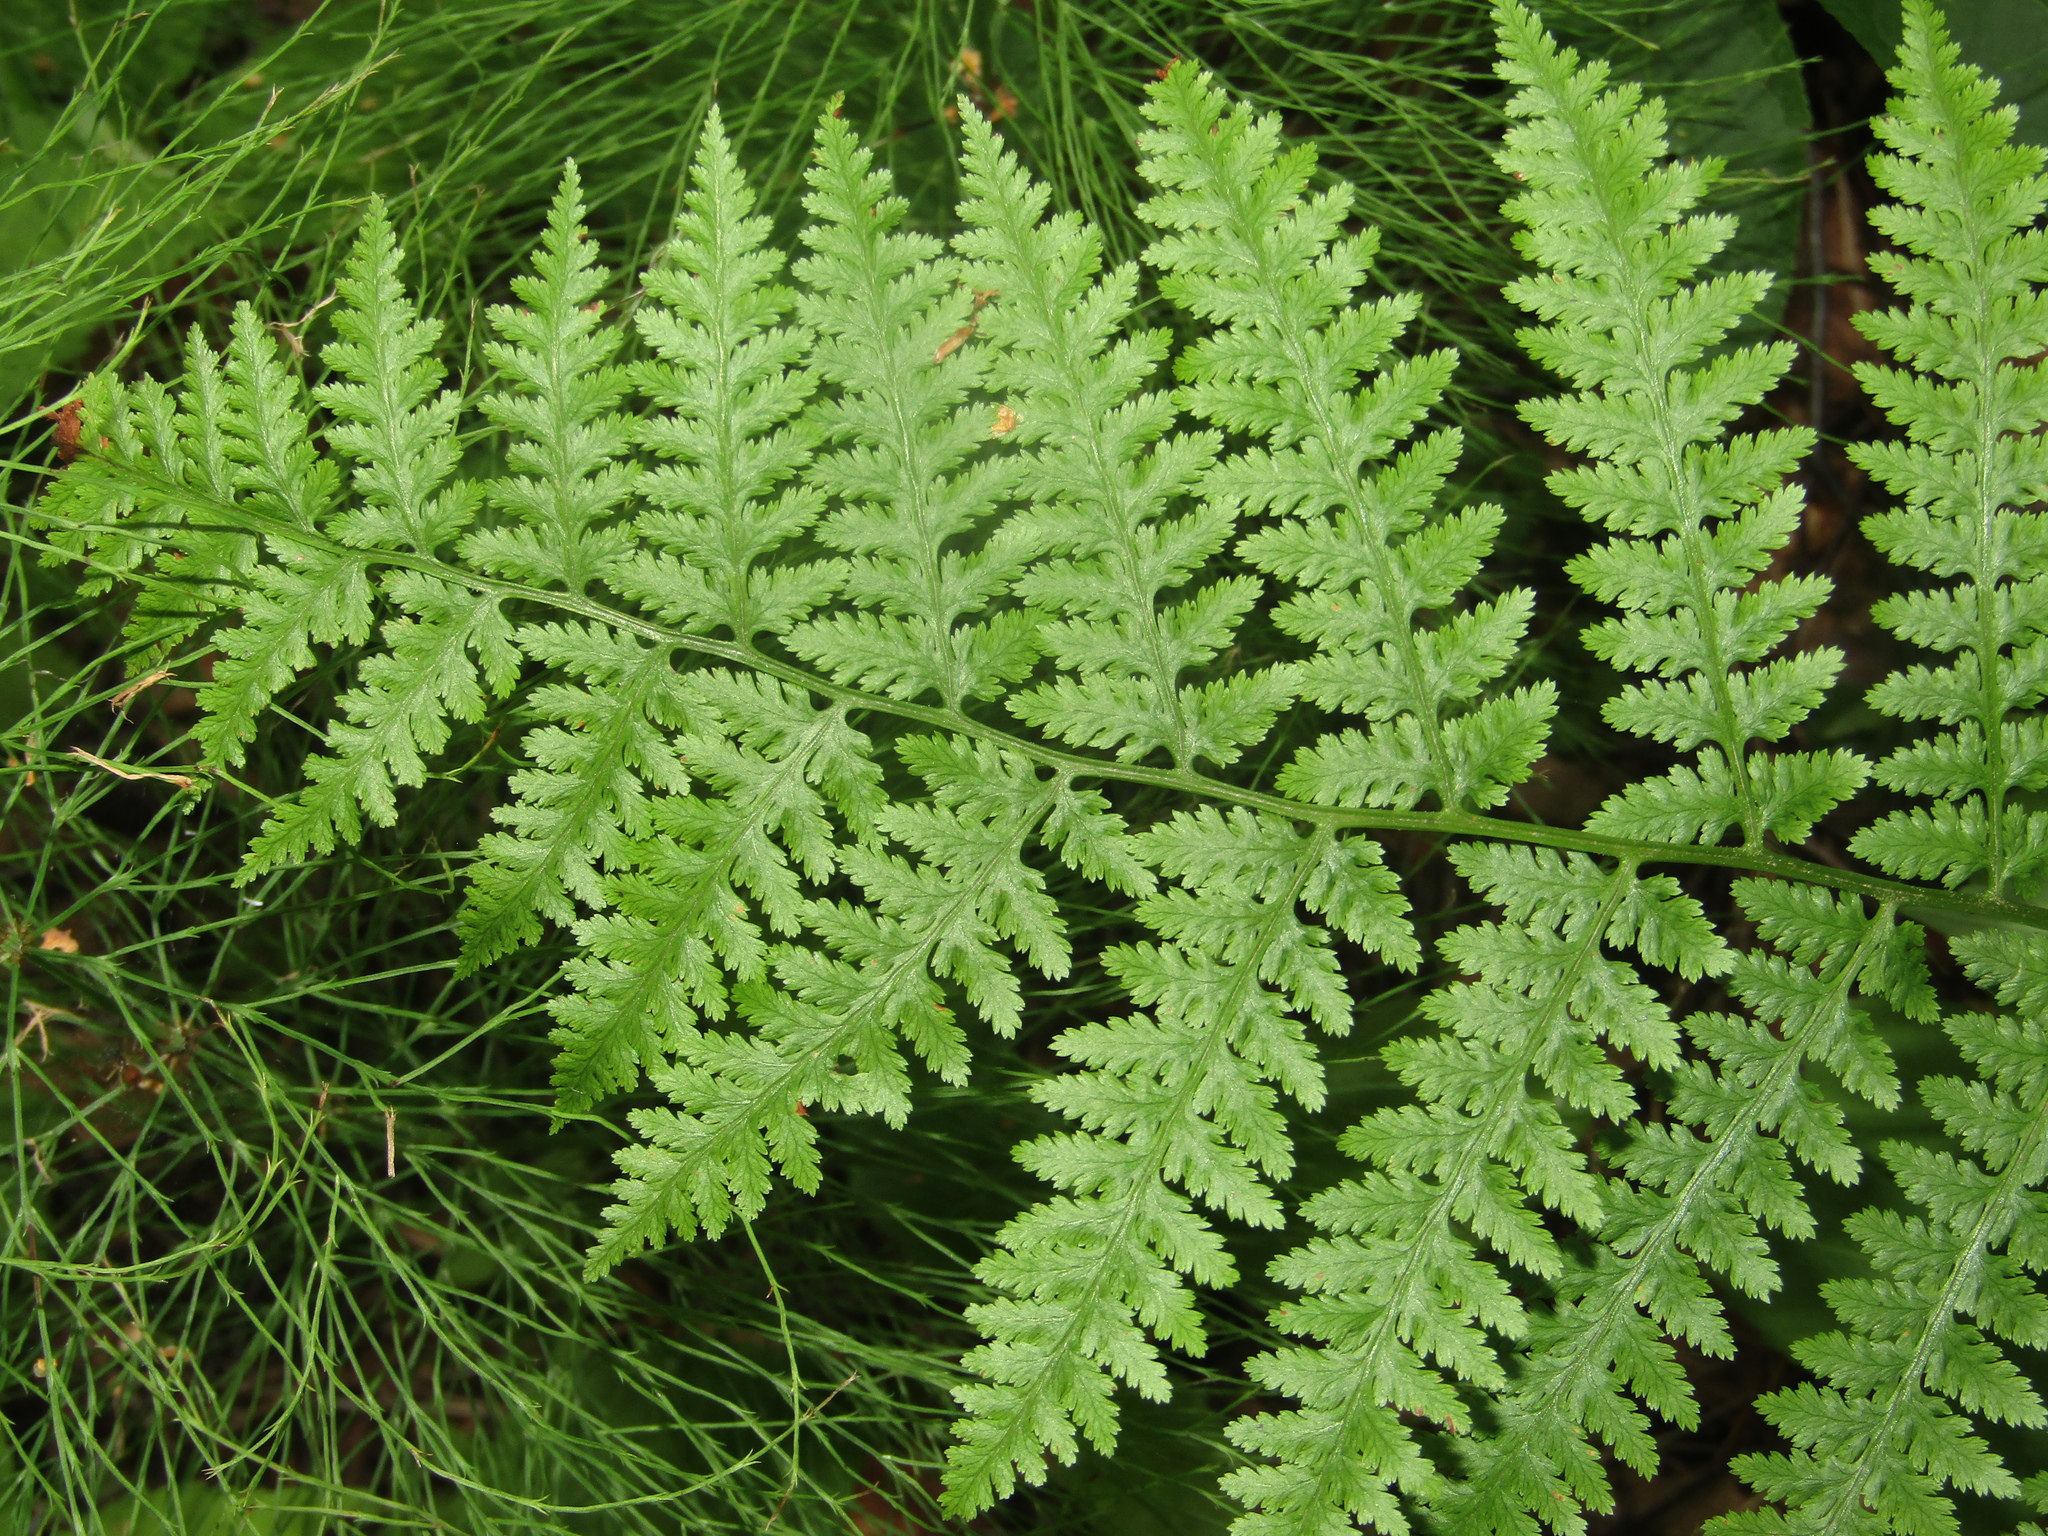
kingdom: Plantae
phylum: Tracheophyta
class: Polypodiopsida
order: Polypodiales
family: Athyriaceae
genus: Athyrium
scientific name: Athyrium filix-femina
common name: Lady fern
